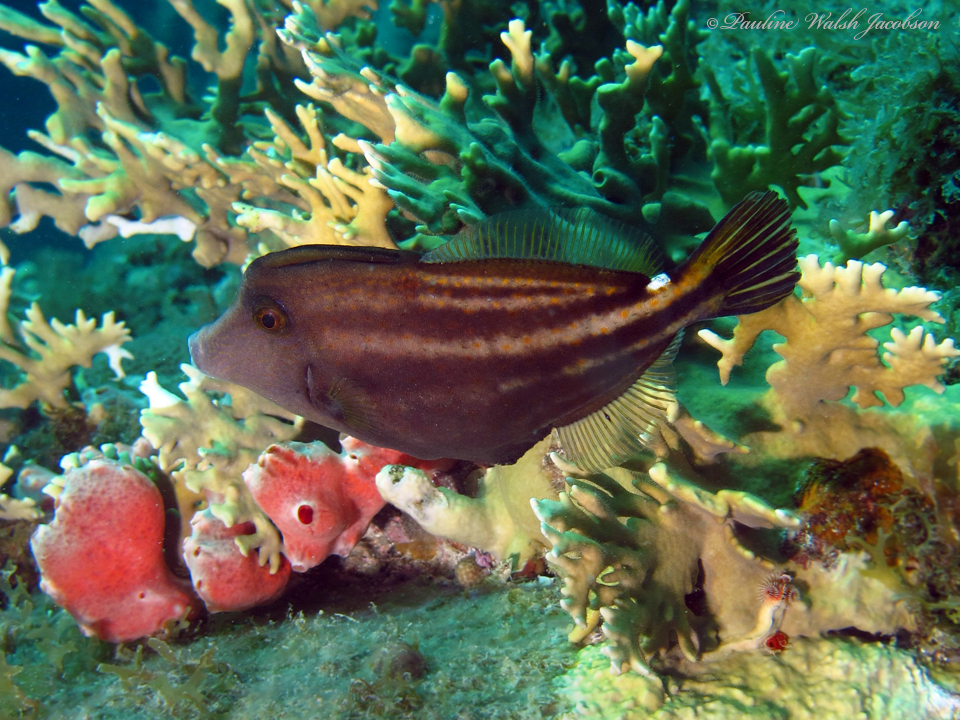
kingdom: Animalia
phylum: Chordata
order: Tetraodontiformes
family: Monacanthidae
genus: Cantherhines
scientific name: Cantherhines pullus
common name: Orangespotted filefish
